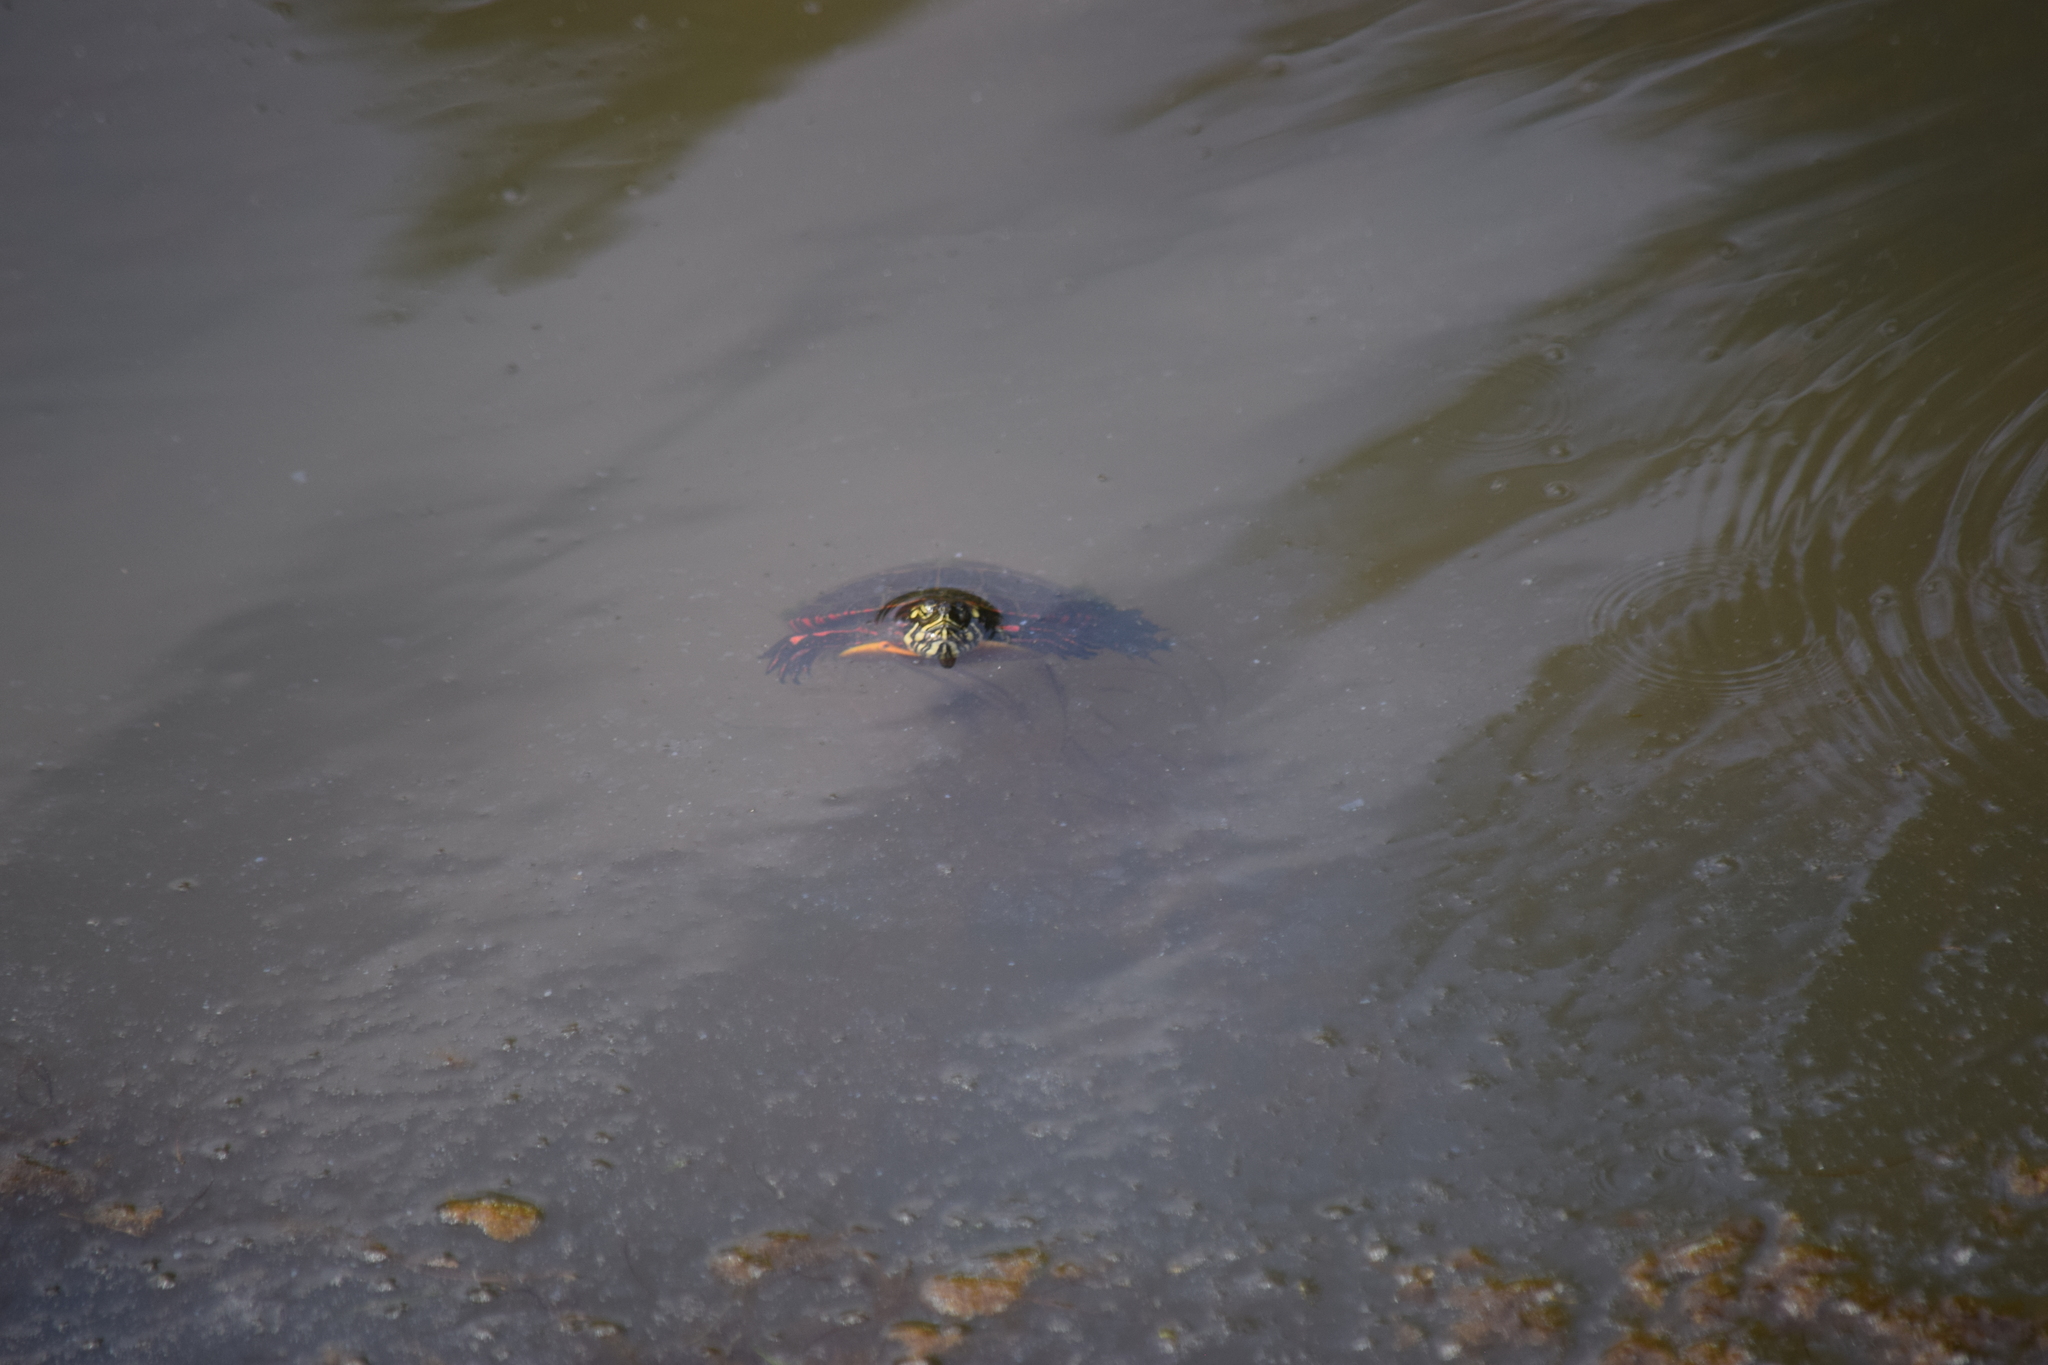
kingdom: Animalia
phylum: Chordata
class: Testudines
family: Emydidae
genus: Chrysemys
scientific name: Chrysemys picta
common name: Painted turtle
